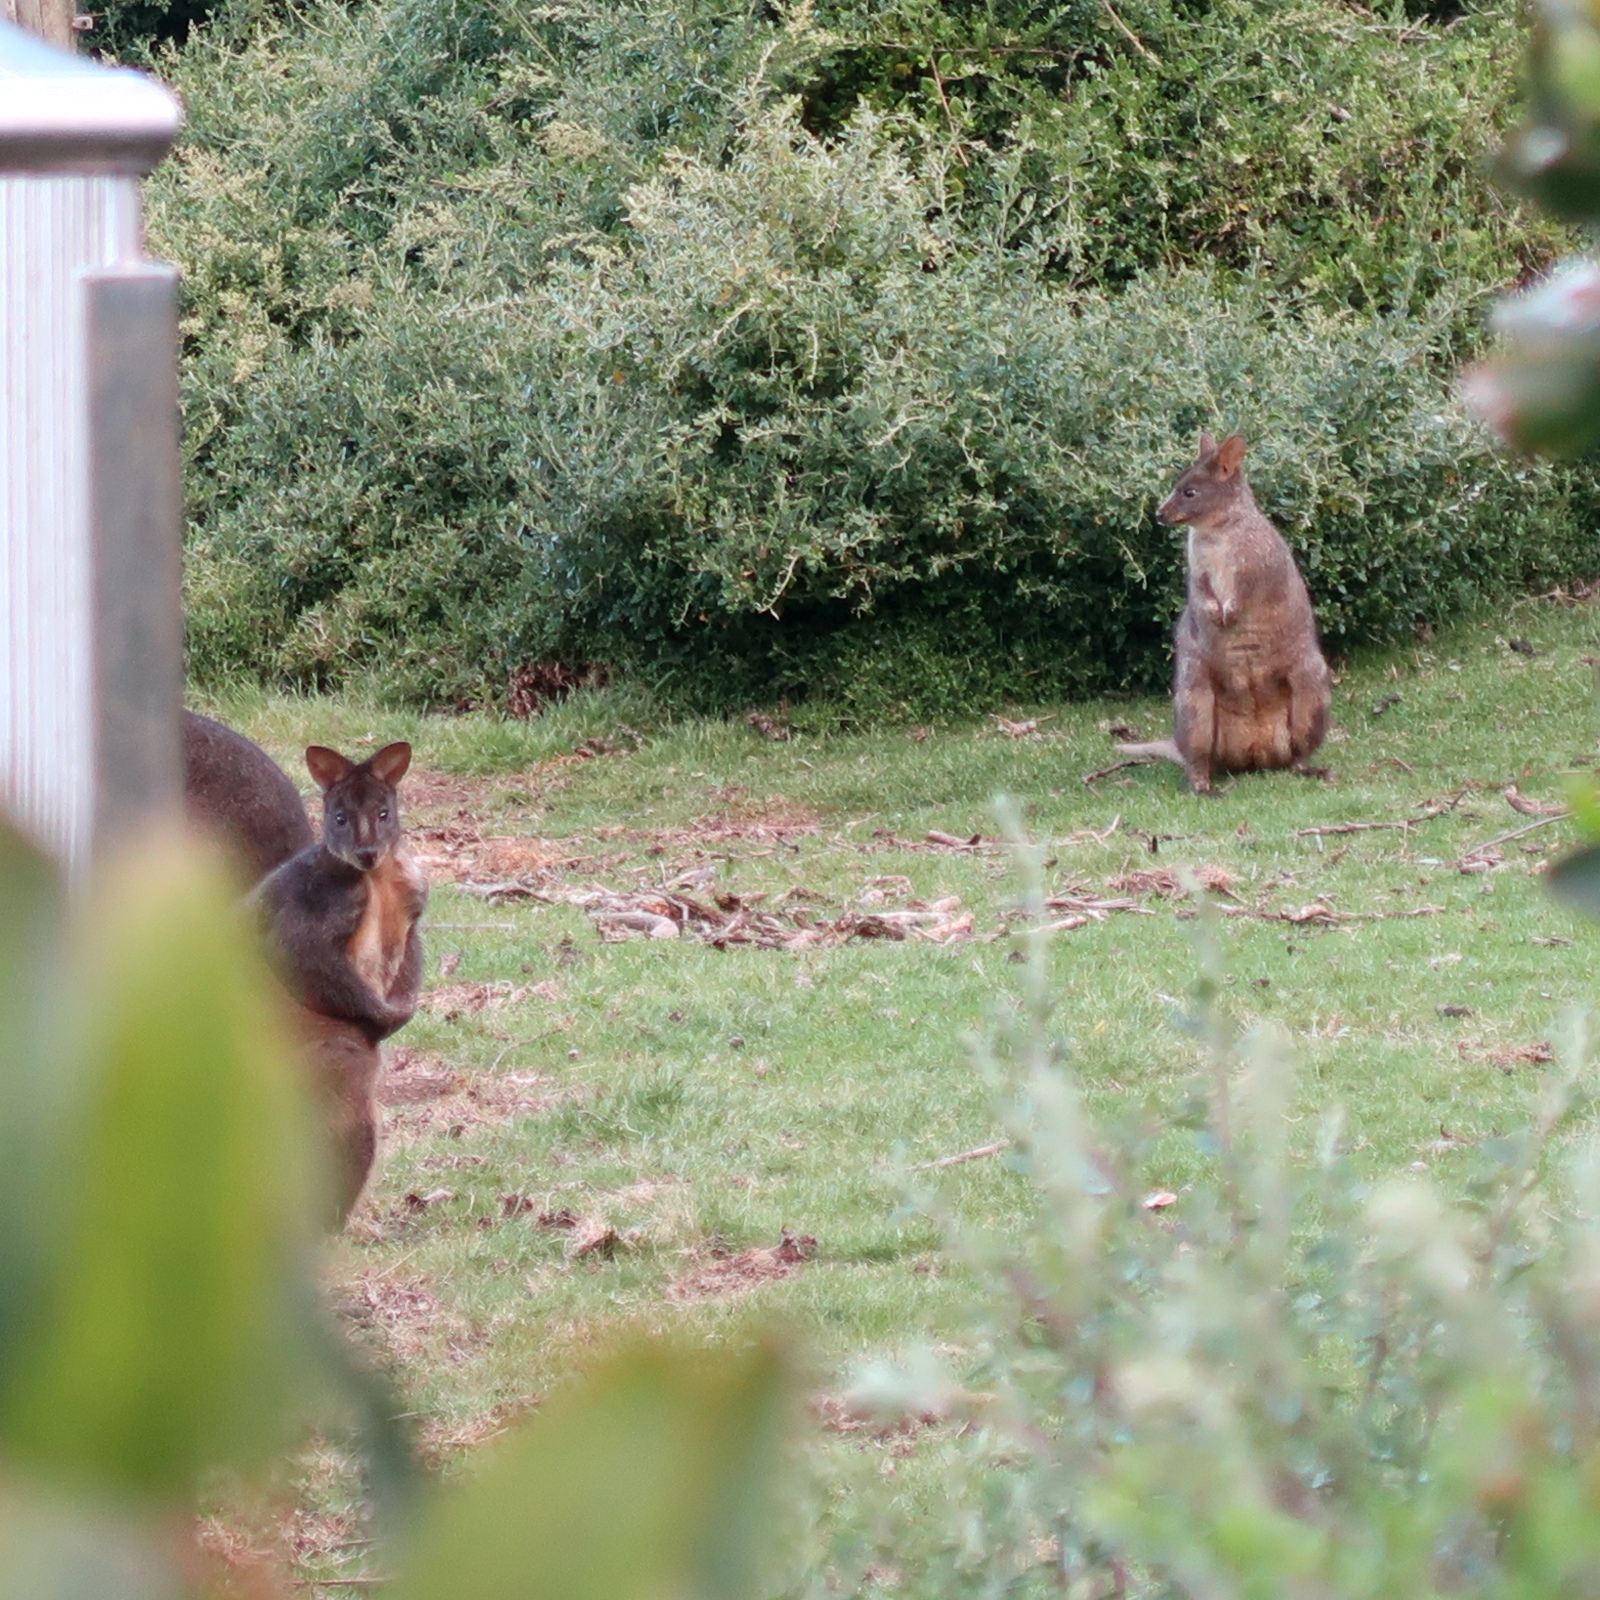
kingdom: Animalia
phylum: Chordata
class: Mammalia
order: Diprotodontia
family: Macropodidae
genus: Thylogale
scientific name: Thylogale billardierii
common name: Tasmanian pademelon
